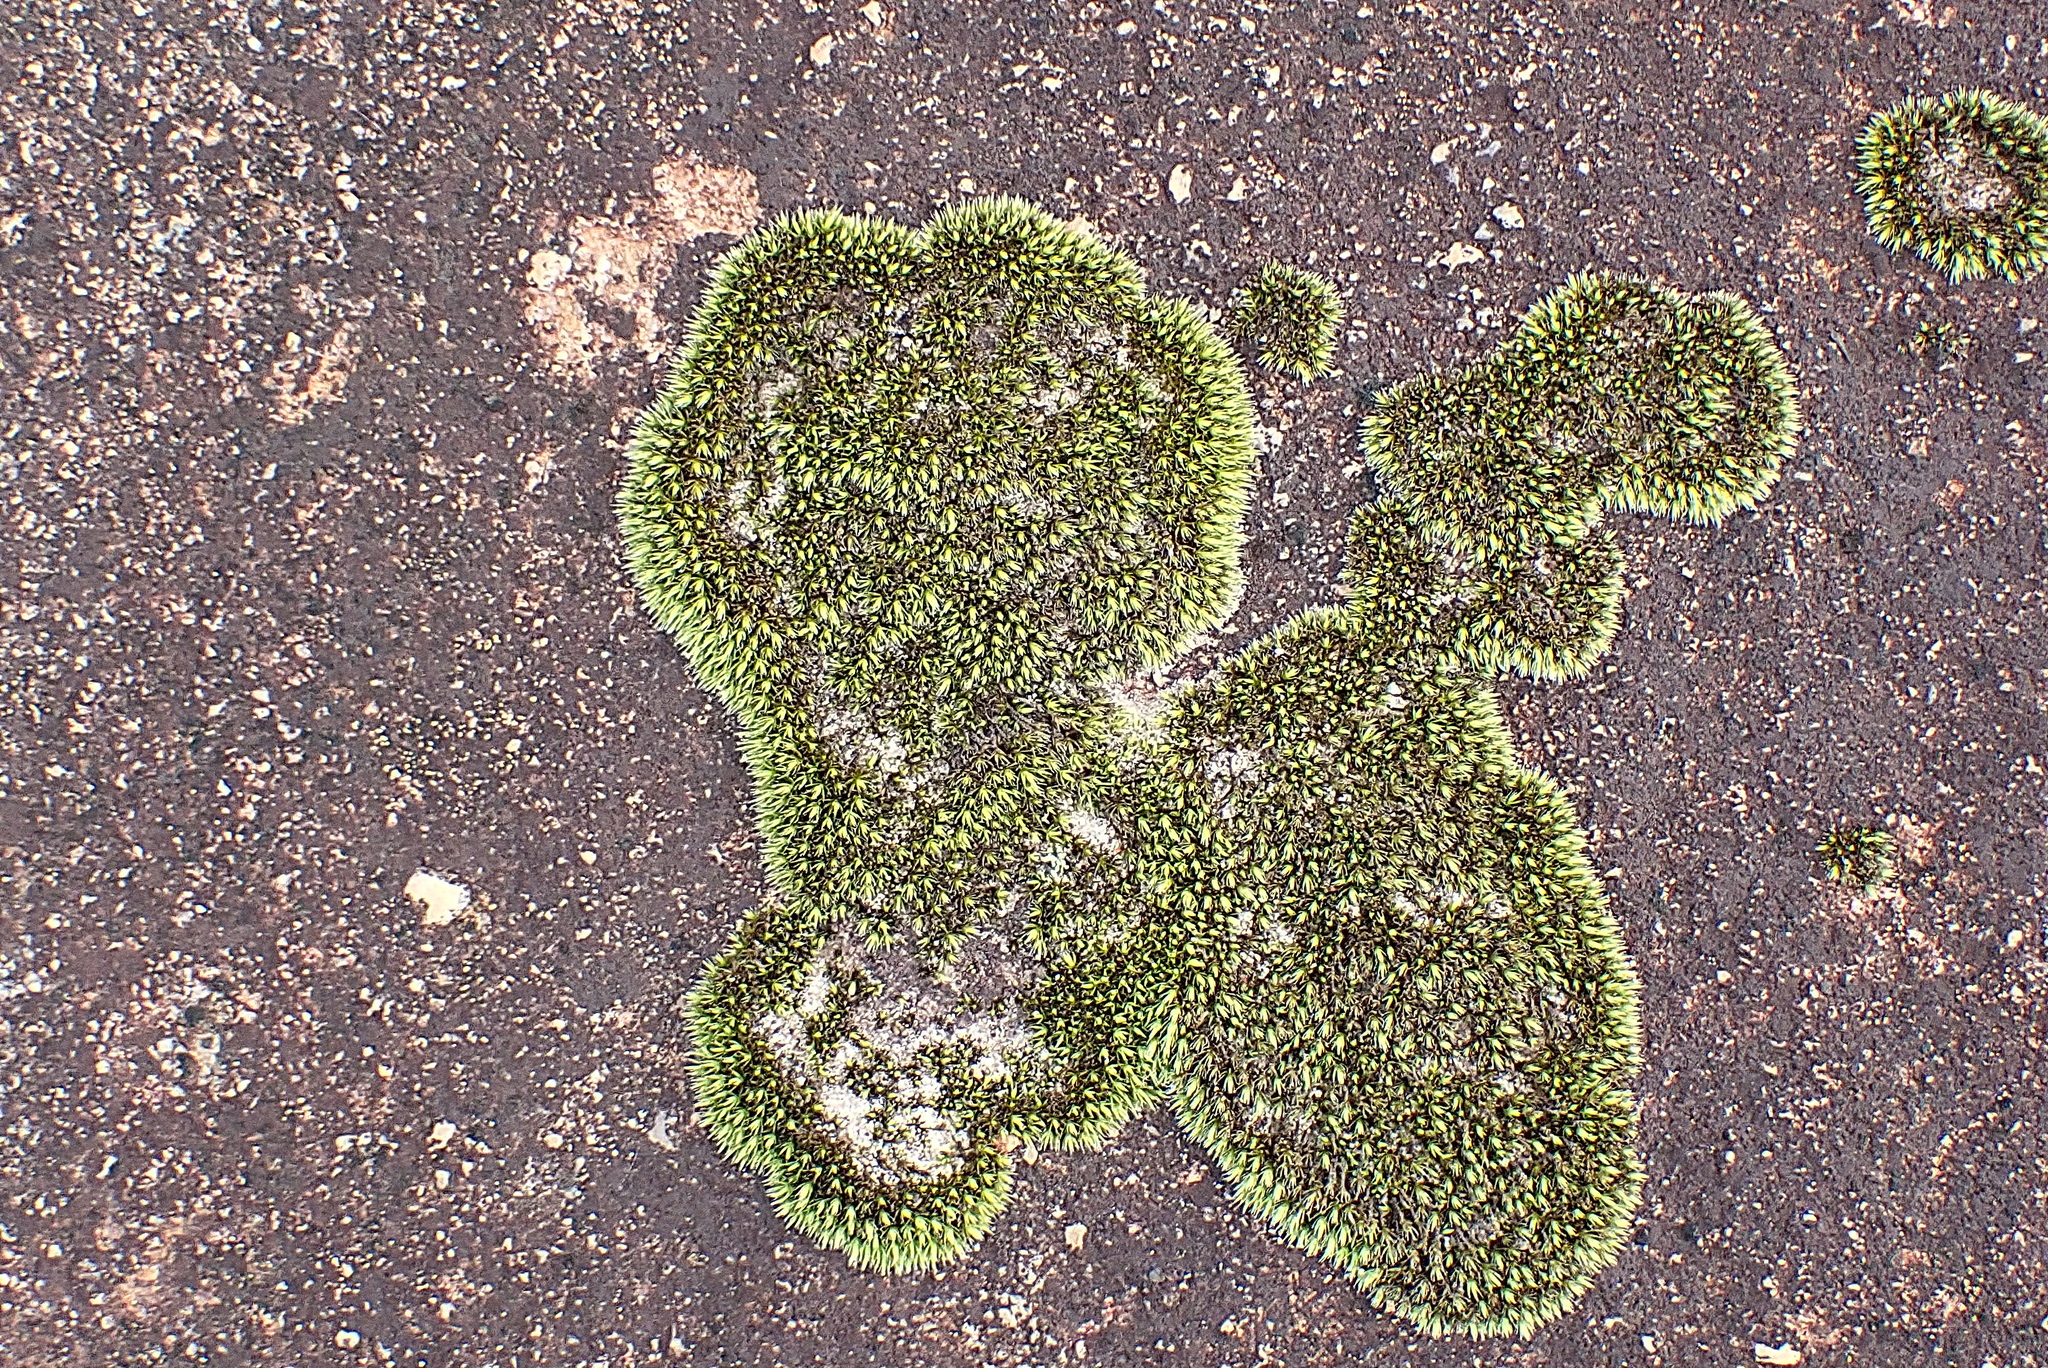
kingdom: Plantae
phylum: Bryophyta
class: Bryopsida
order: Grimmiales
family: Grimmiaceae
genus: Grimmia
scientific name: Grimmia laevigata
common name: Hoary grimmia
